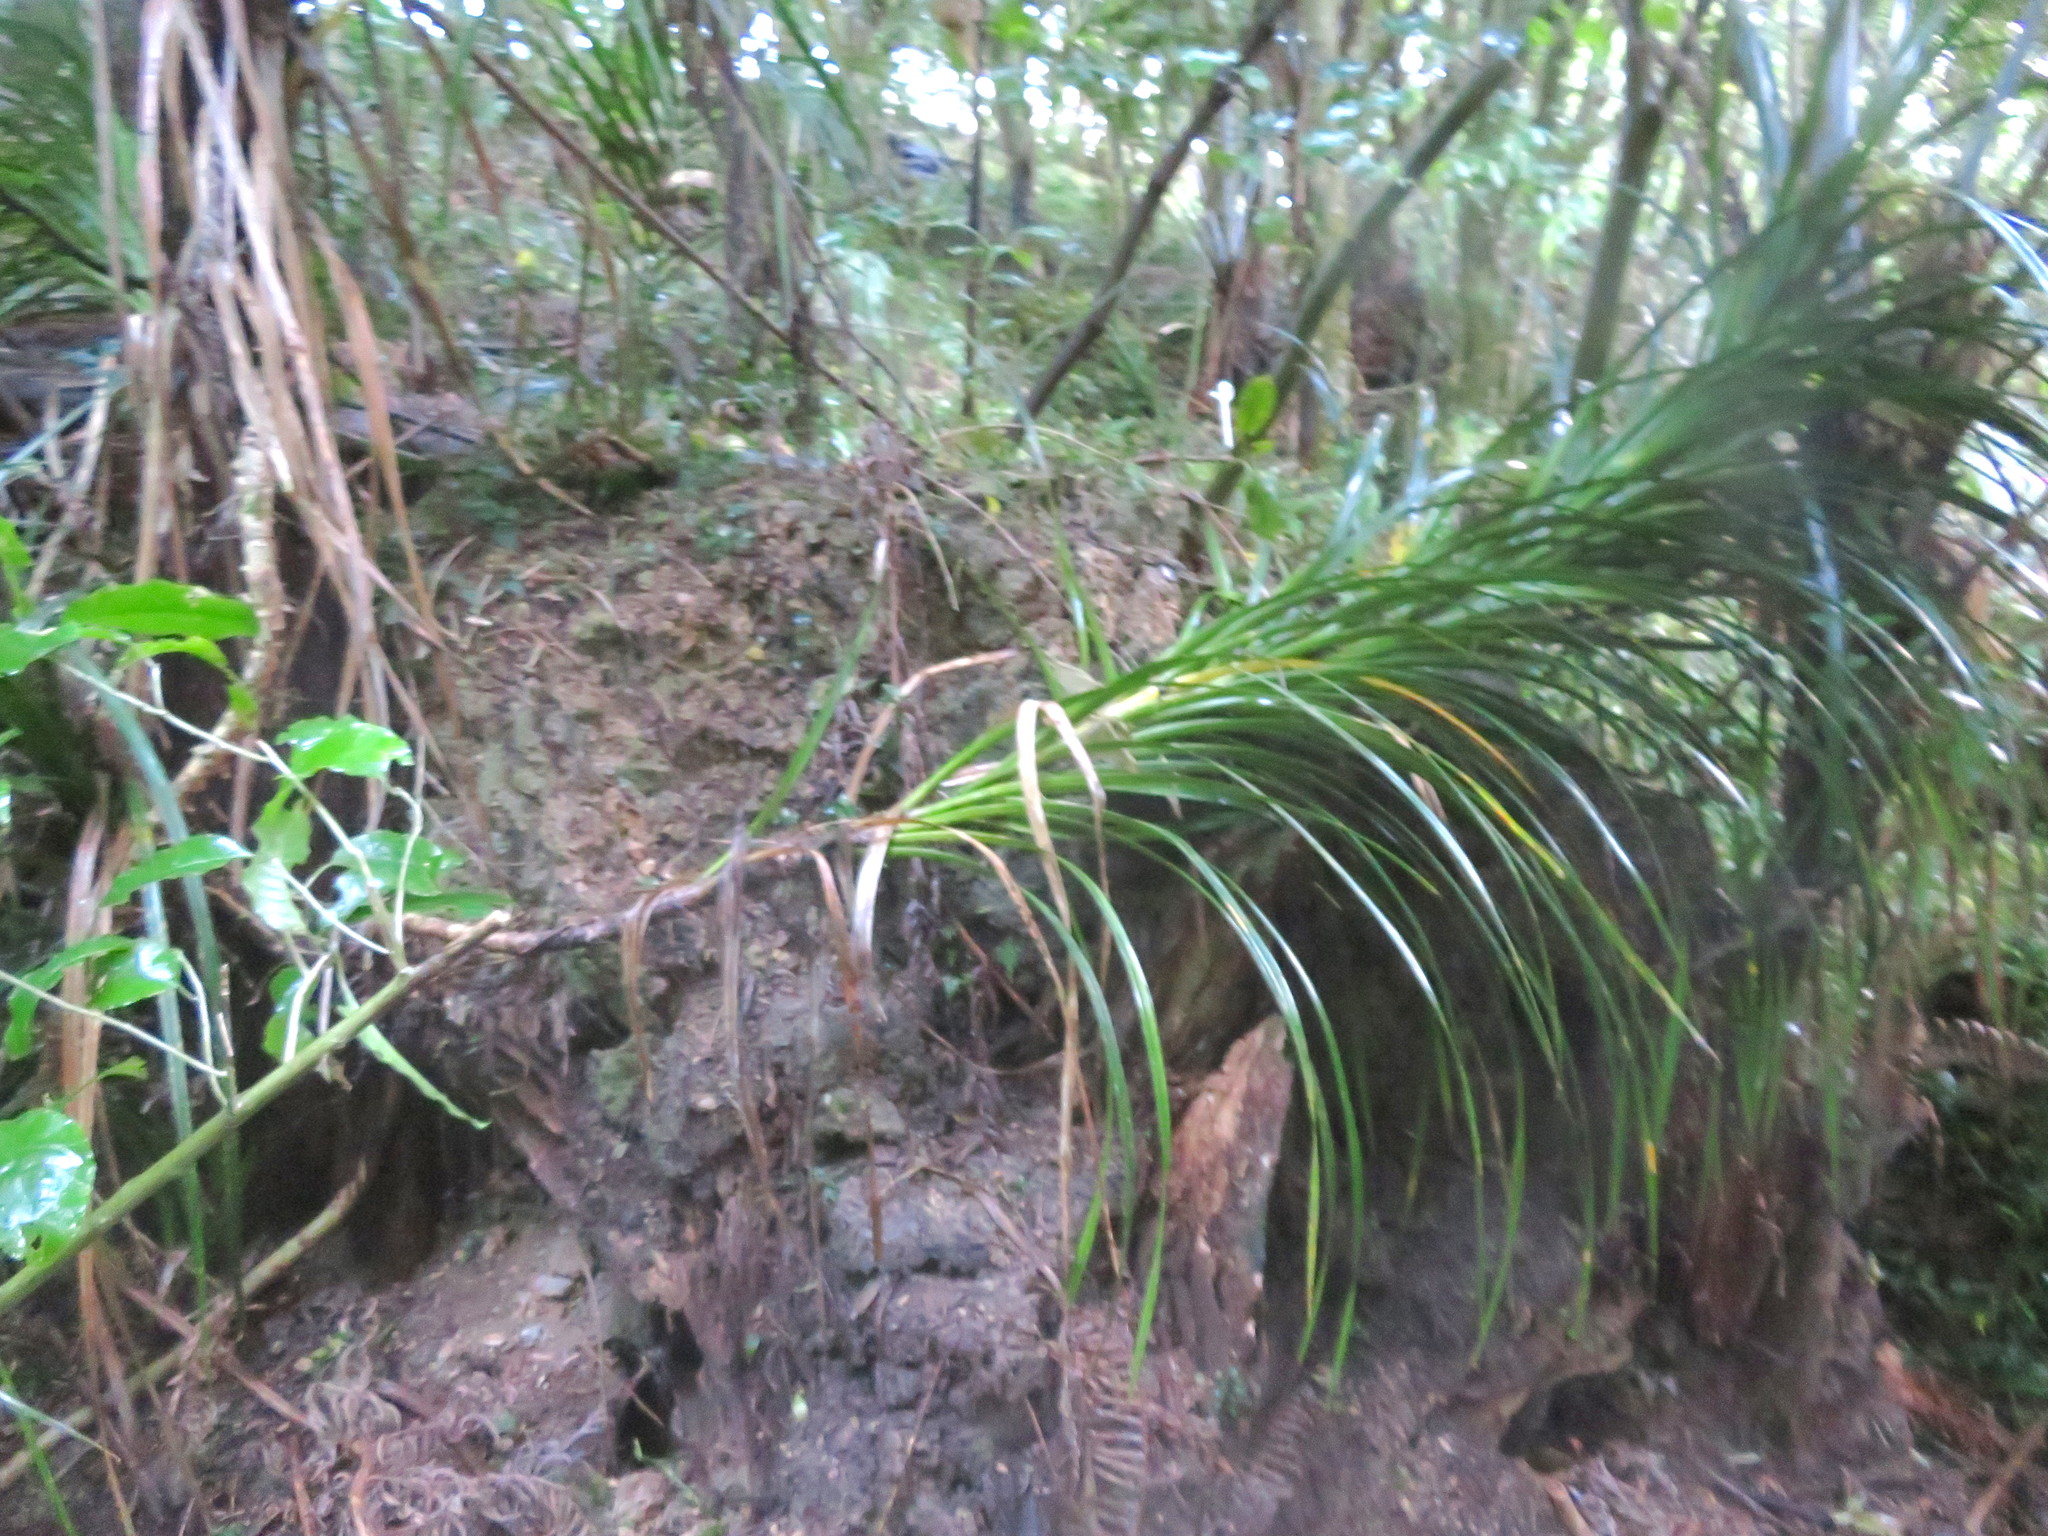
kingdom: Plantae
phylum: Tracheophyta
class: Liliopsida
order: Pandanales
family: Pandanaceae
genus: Freycinetia
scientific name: Freycinetia banksii
